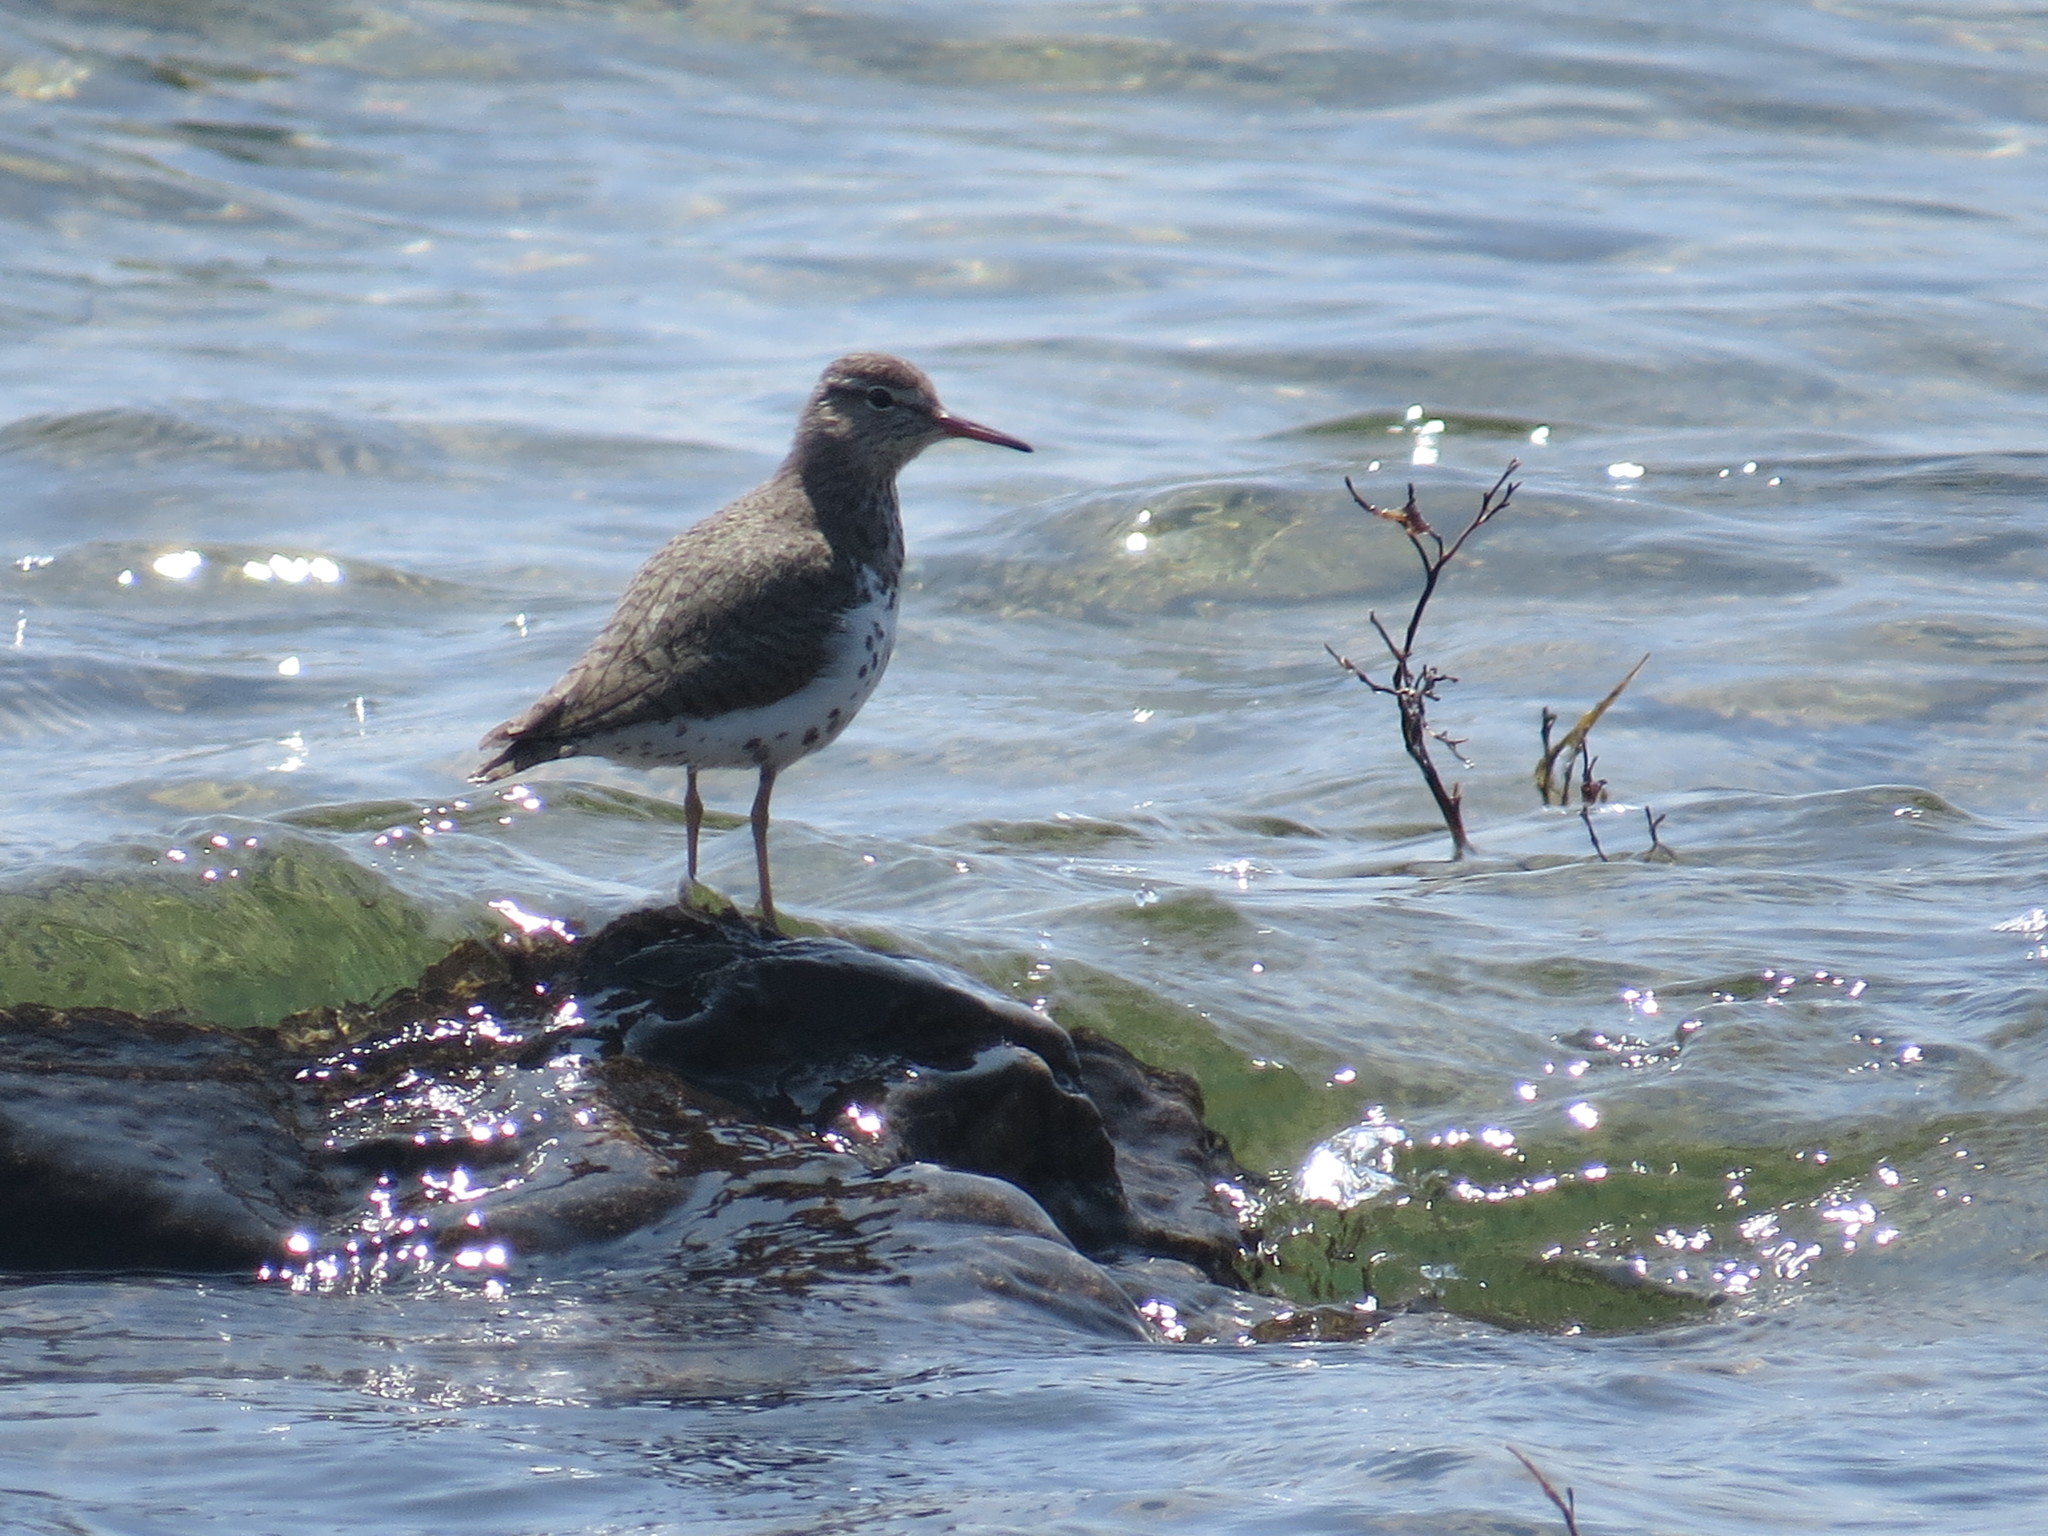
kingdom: Animalia
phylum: Chordata
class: Aves
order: Charadriiformes
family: Scolopacidae
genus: Actitis
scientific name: Actitis macularius
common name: Spotted sandpiper
